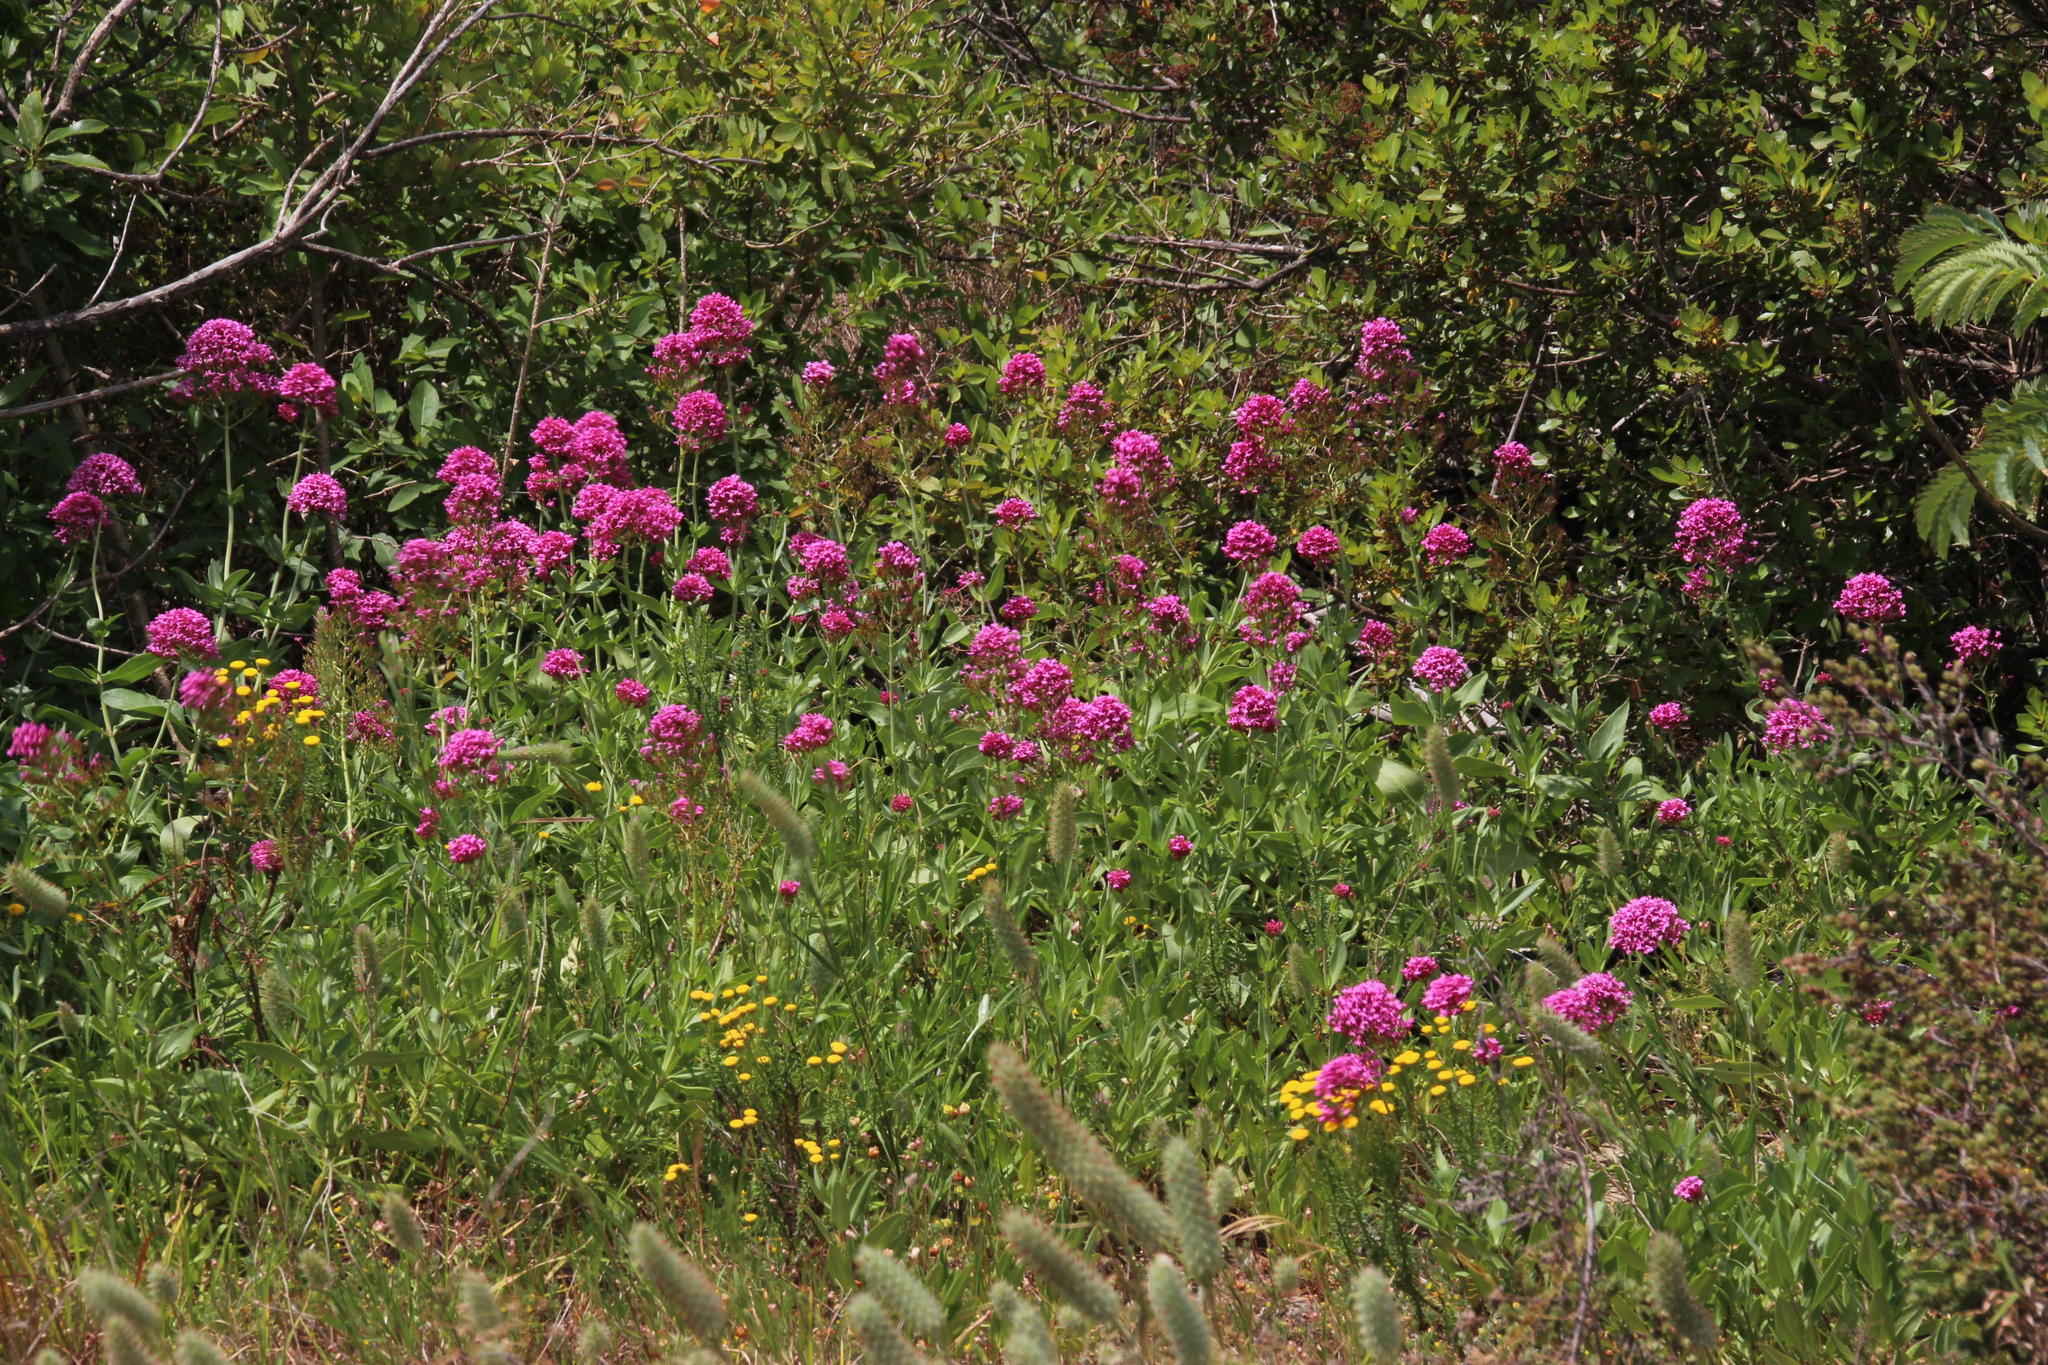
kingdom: Plantae
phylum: Tracheophyta
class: Magnoliopsida
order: Dipsacales
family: Caprifoliaceae
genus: Centranthus
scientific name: Centranthus ruber
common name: Red valerian
